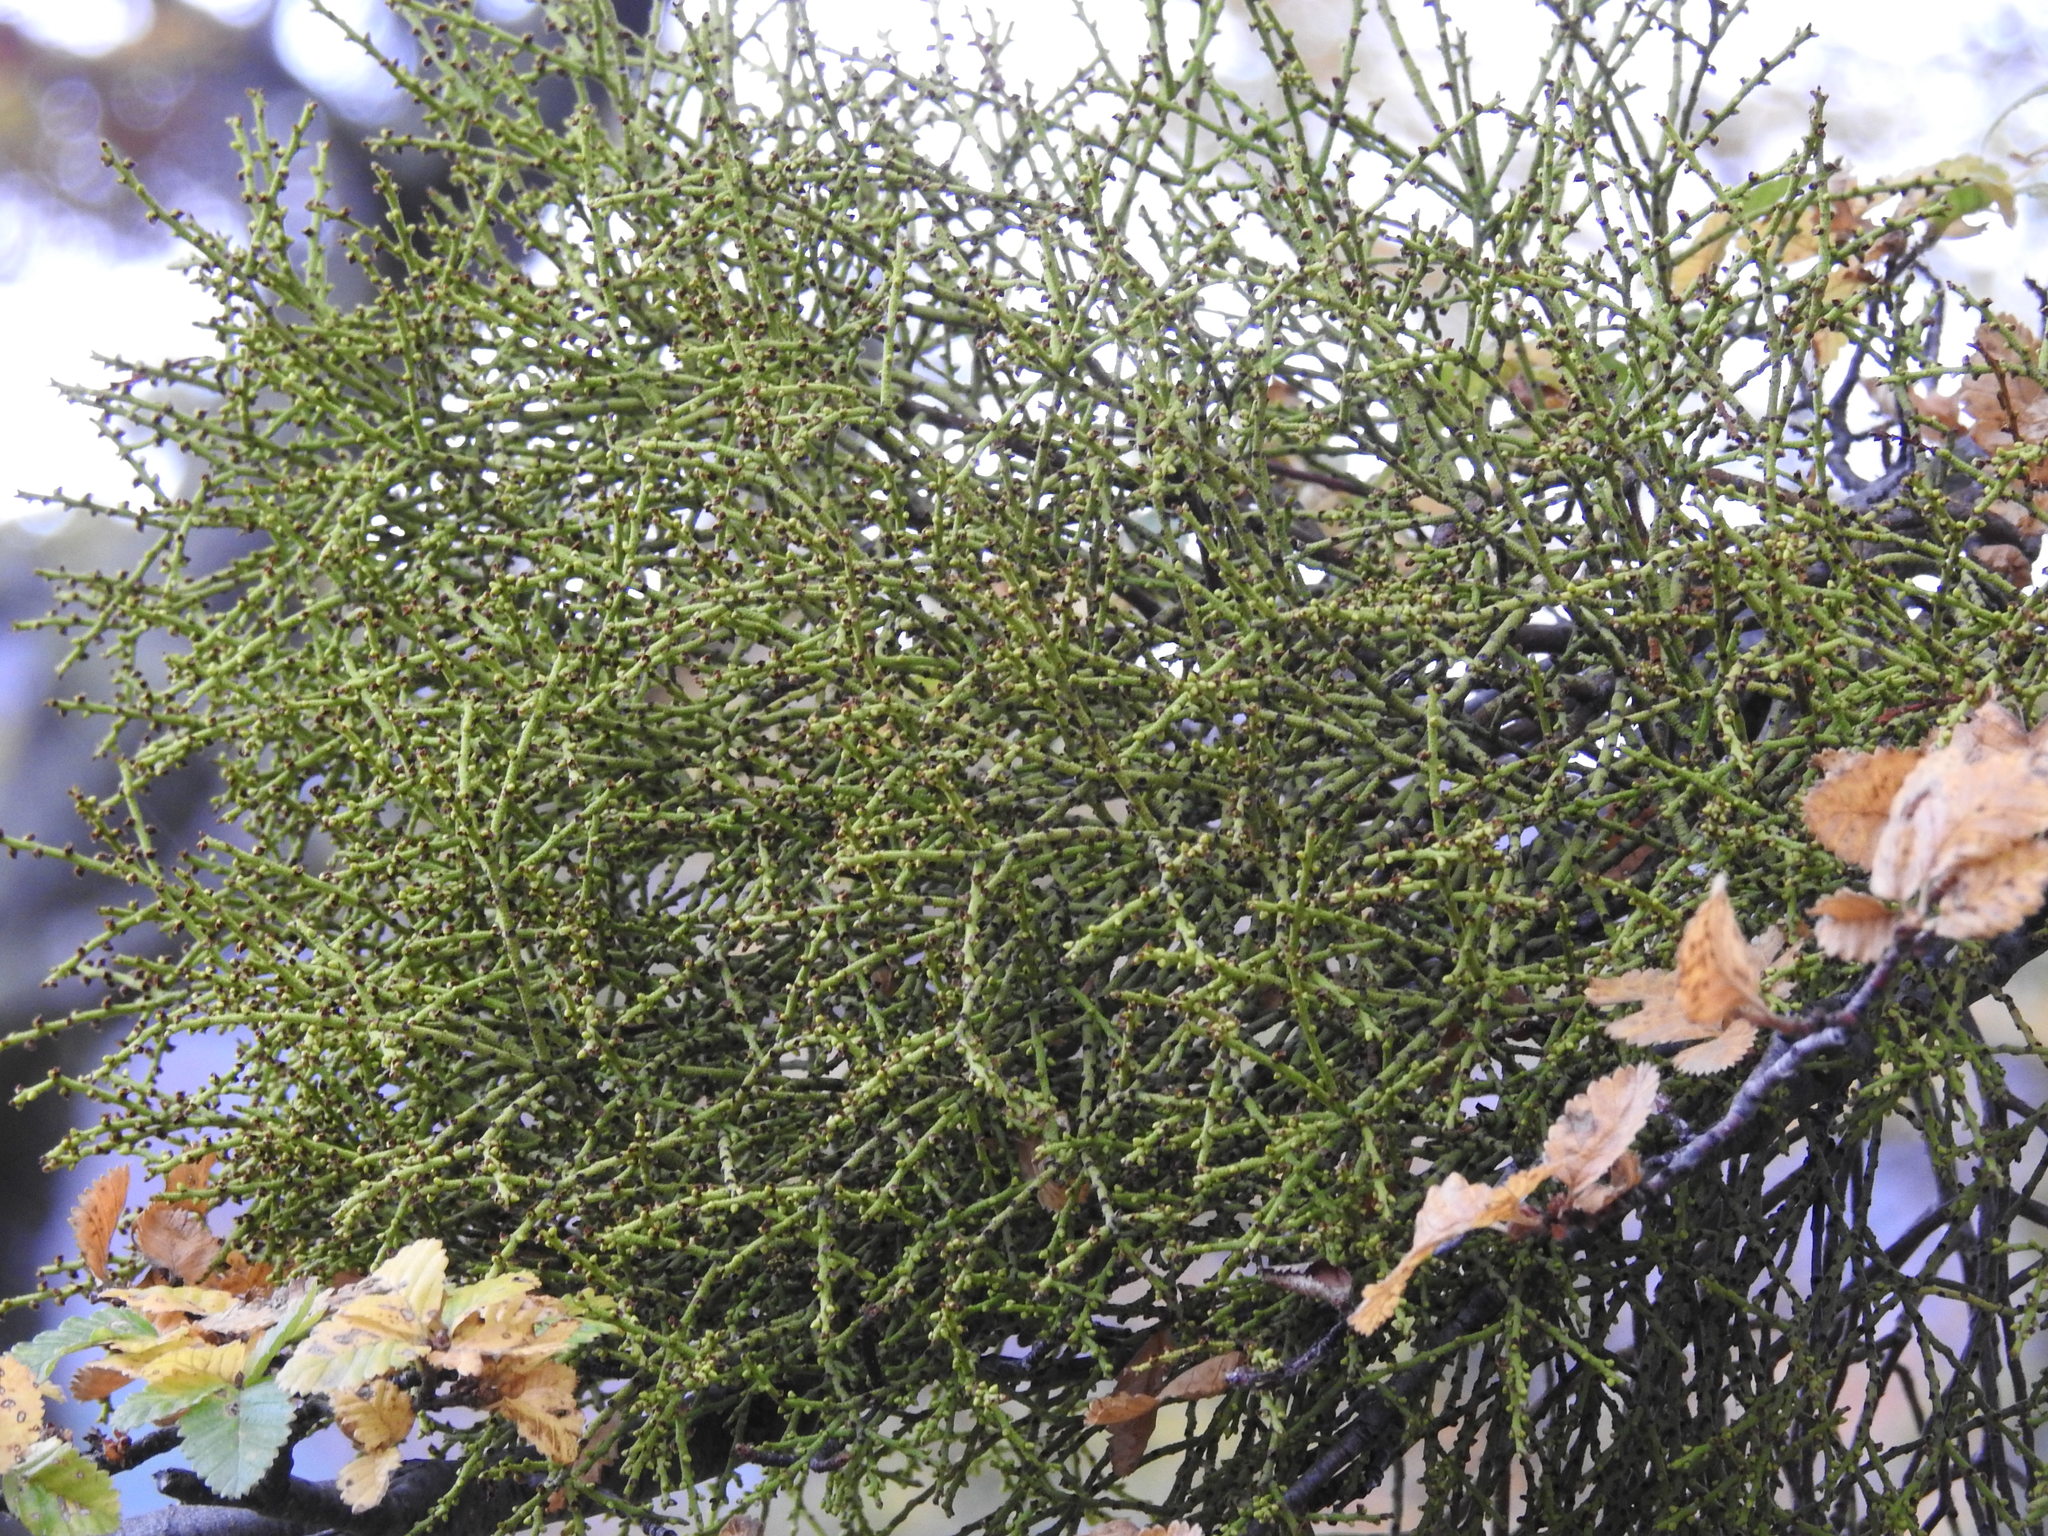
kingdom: Plantae
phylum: Tracheophyta
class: Magnoliopsida
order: Santalales
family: Misodendraceae
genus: Misodendrum
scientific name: Misodendrum punctulatum
